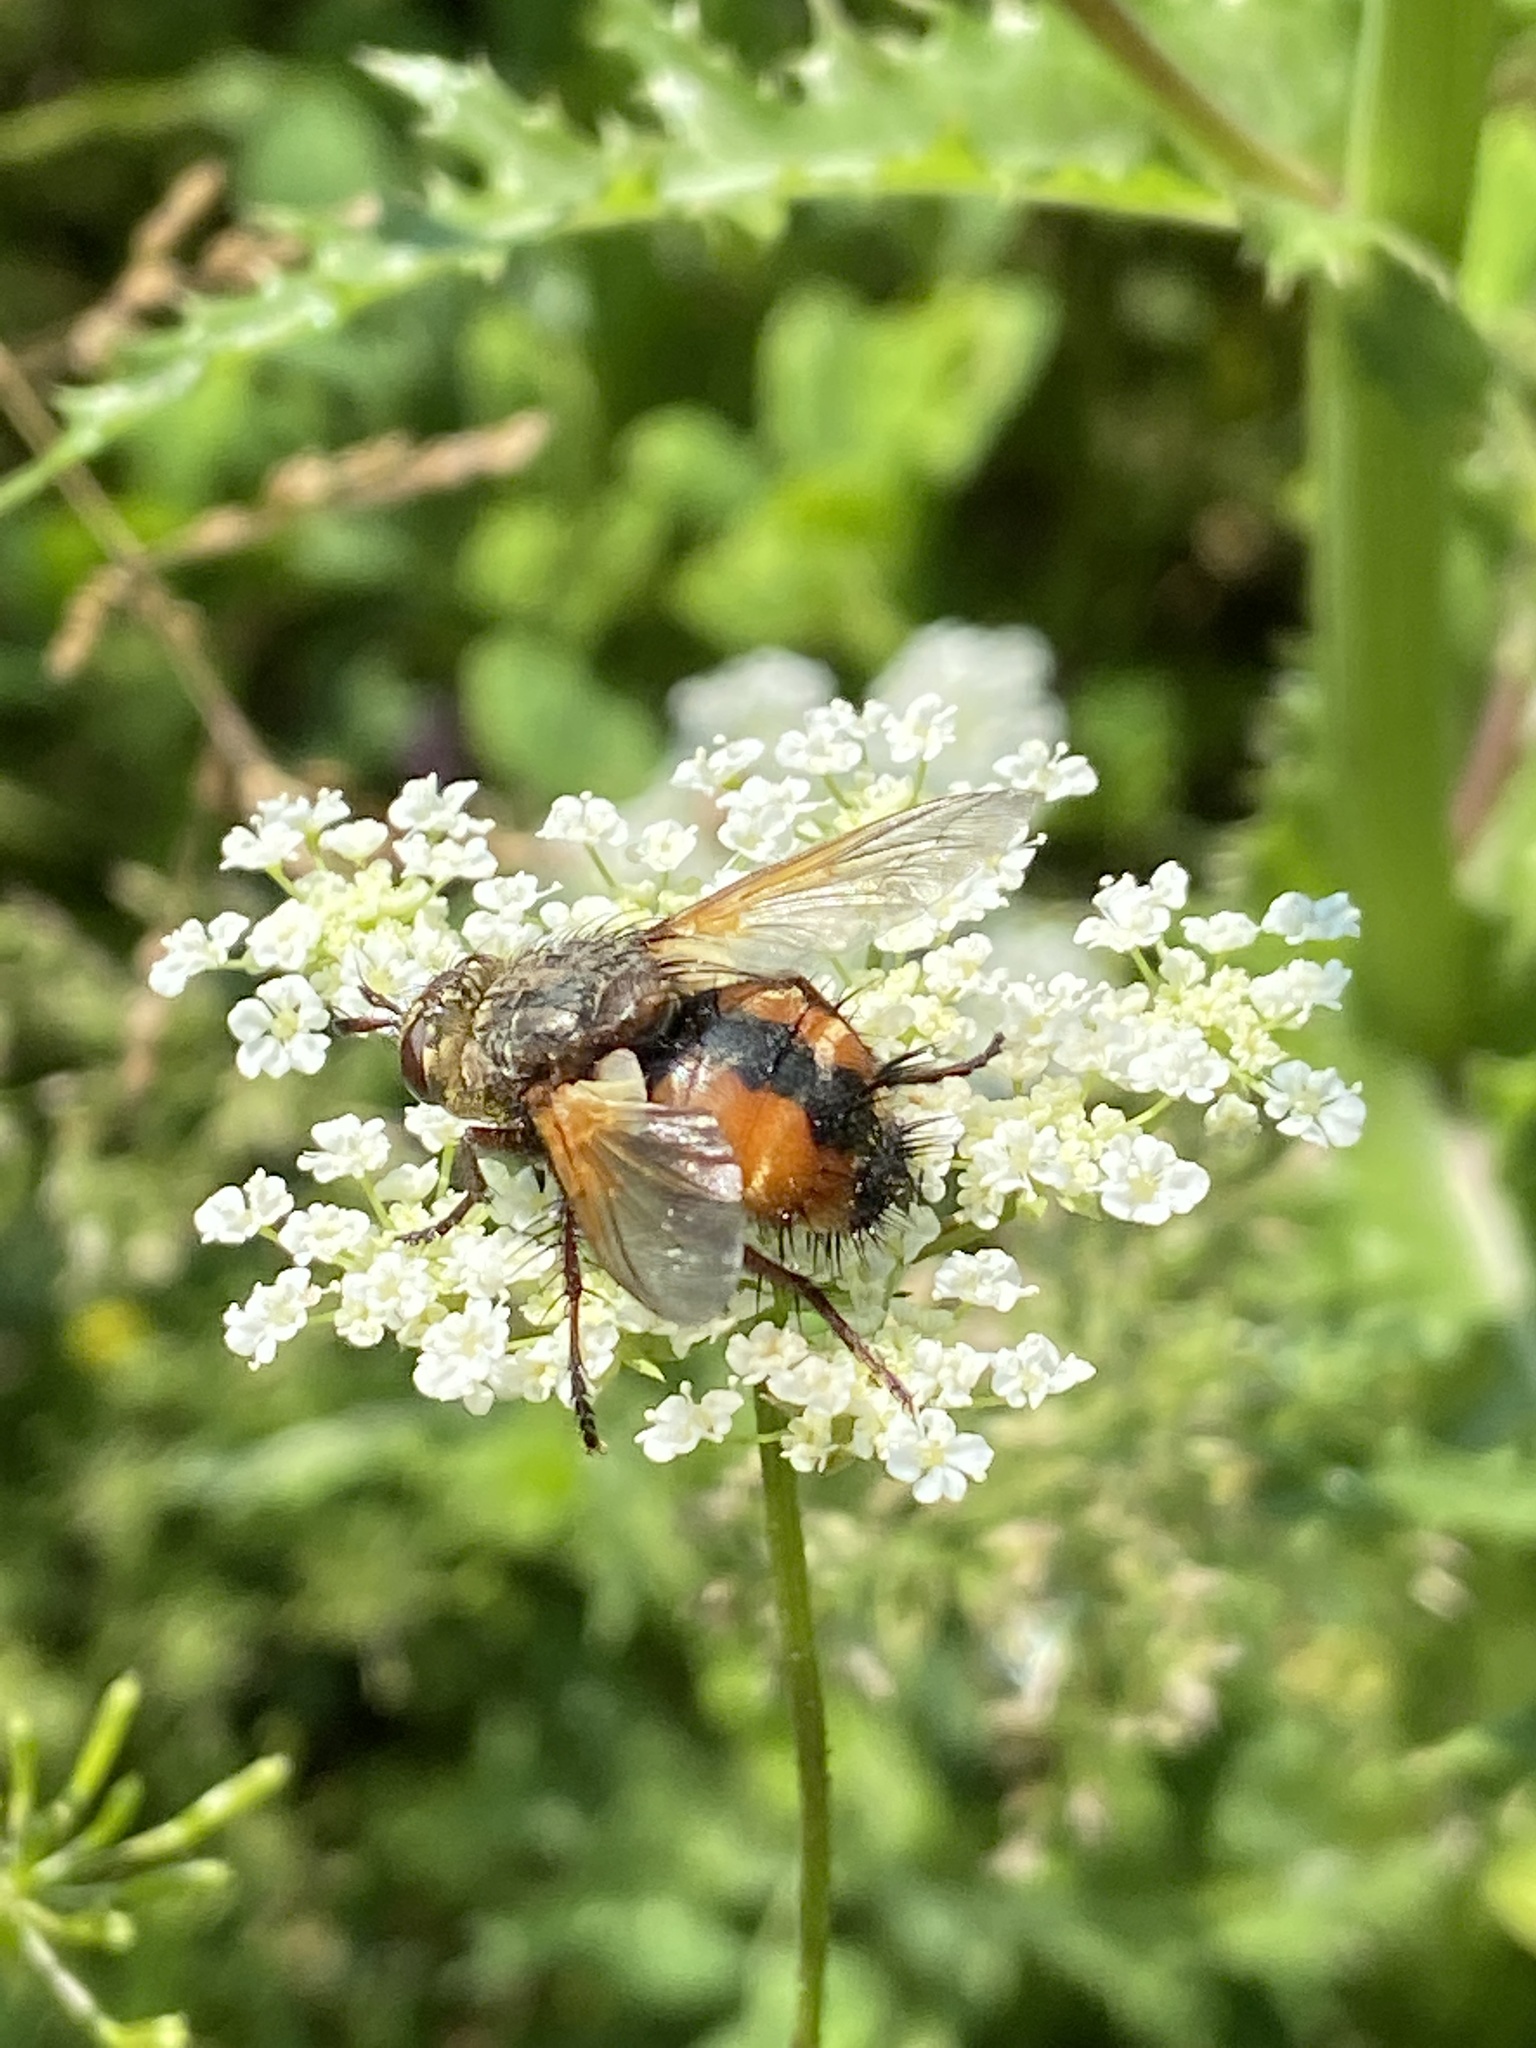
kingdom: Animalia
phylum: Arthropoda
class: Insecta
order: Diptera
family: Tachinidae
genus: Tachina
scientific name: Tachina fera
